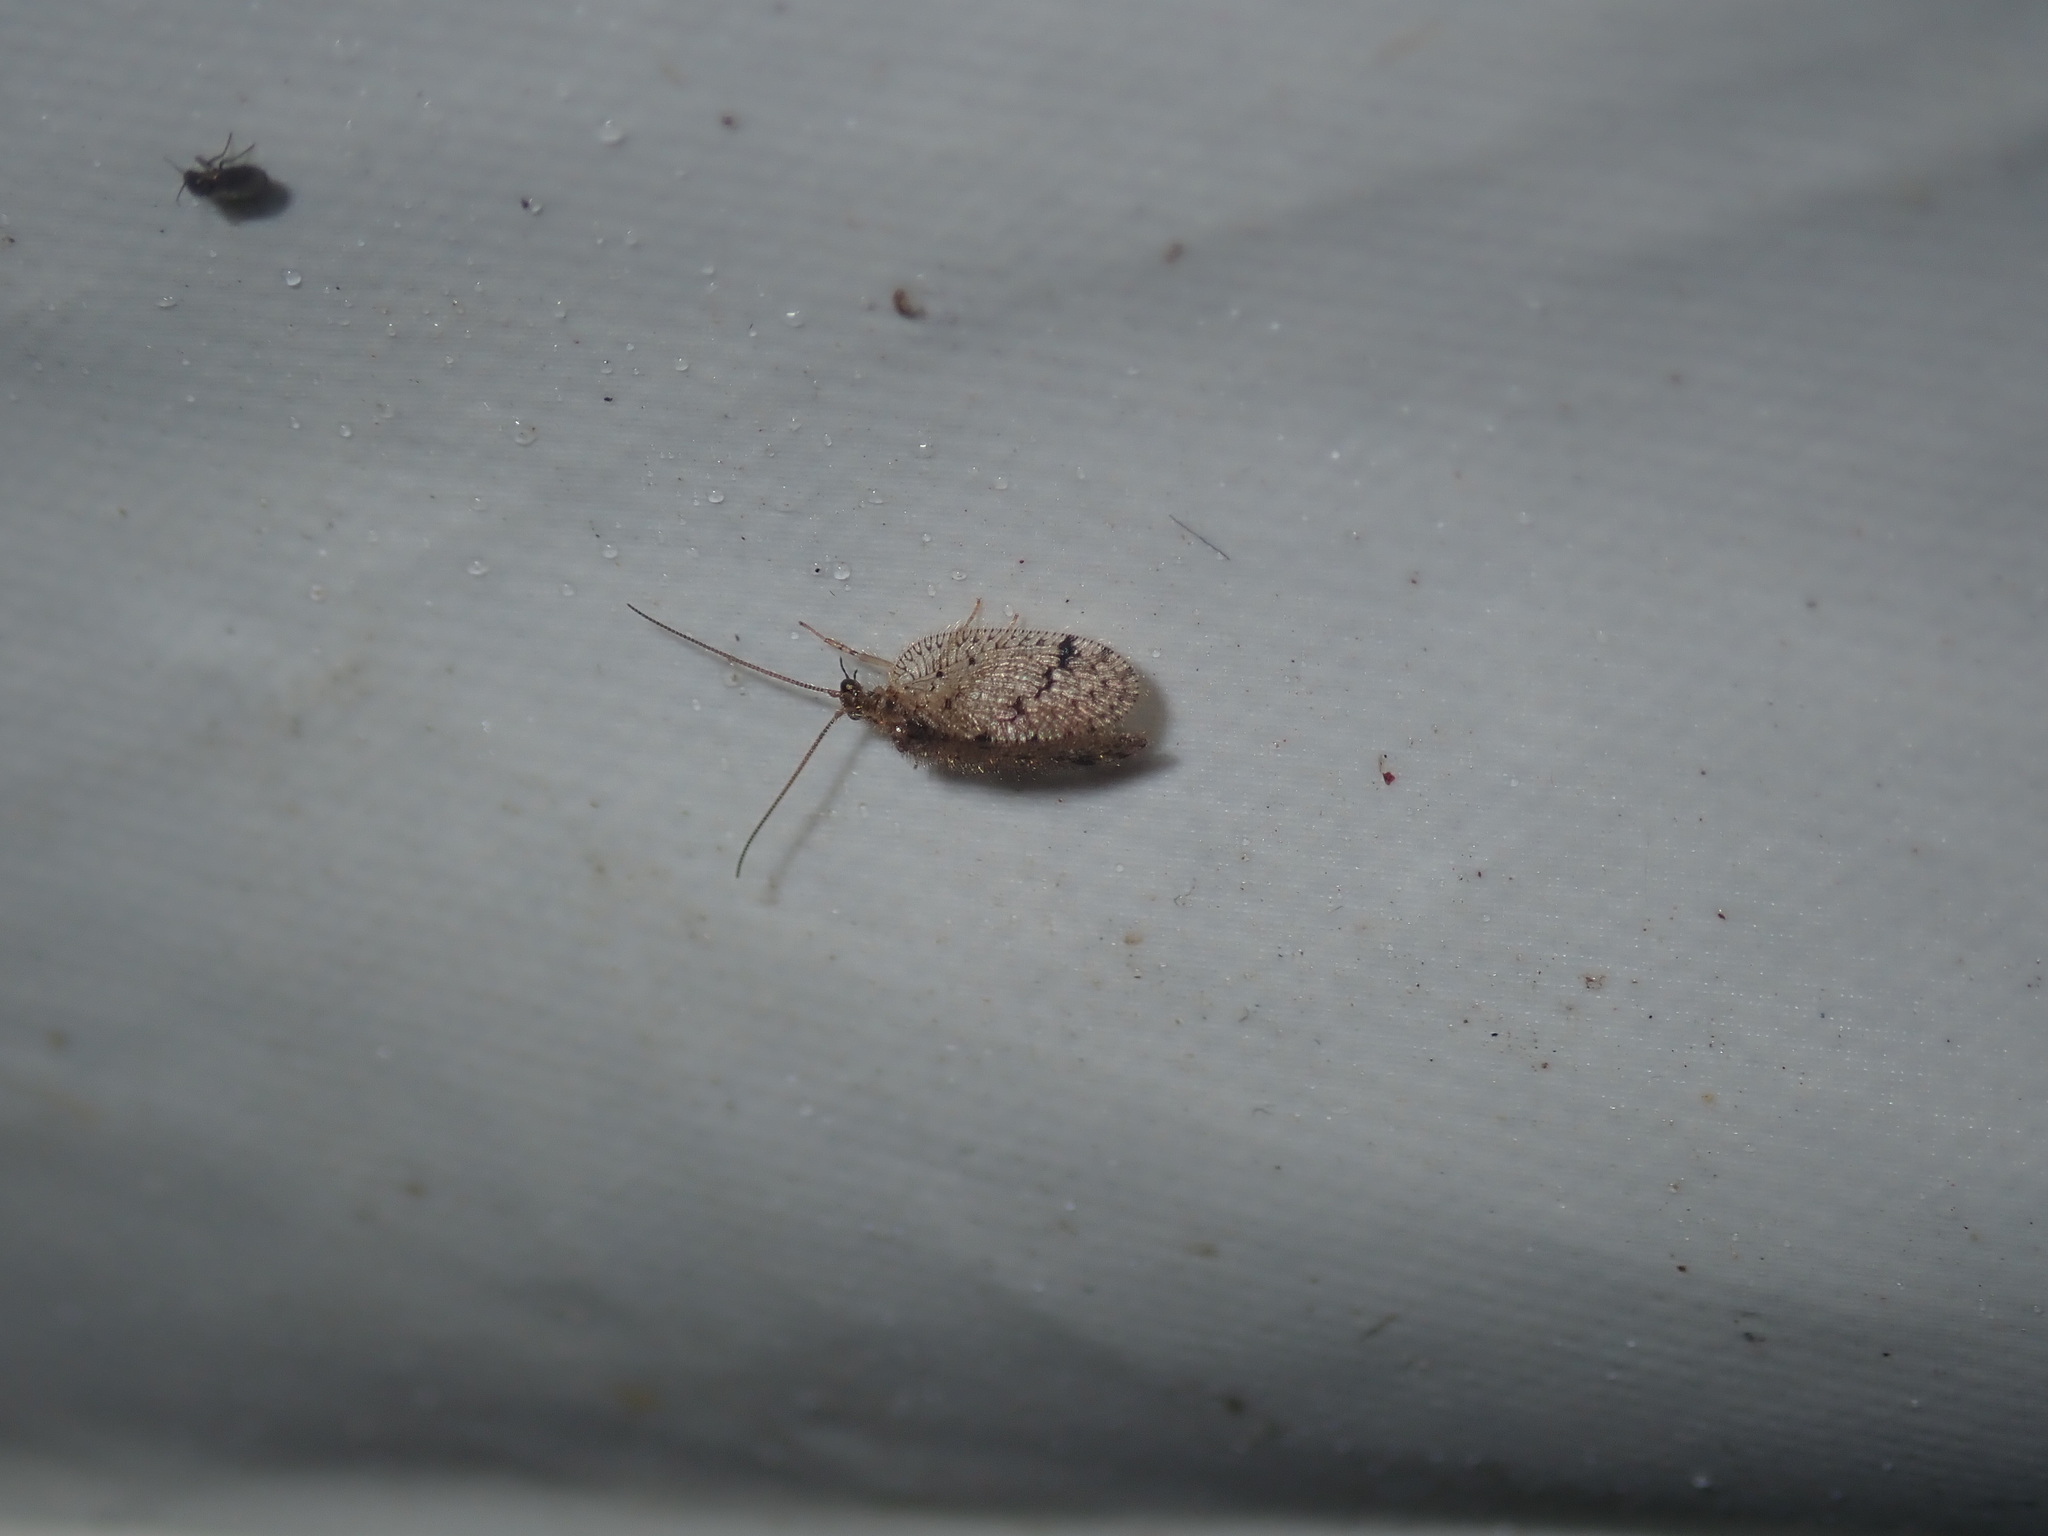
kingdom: Animalia
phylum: Arthropoda
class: Insecta
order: Neuroptera
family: Hemerobiidae
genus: Psectra
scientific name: Psectra nakaharai
